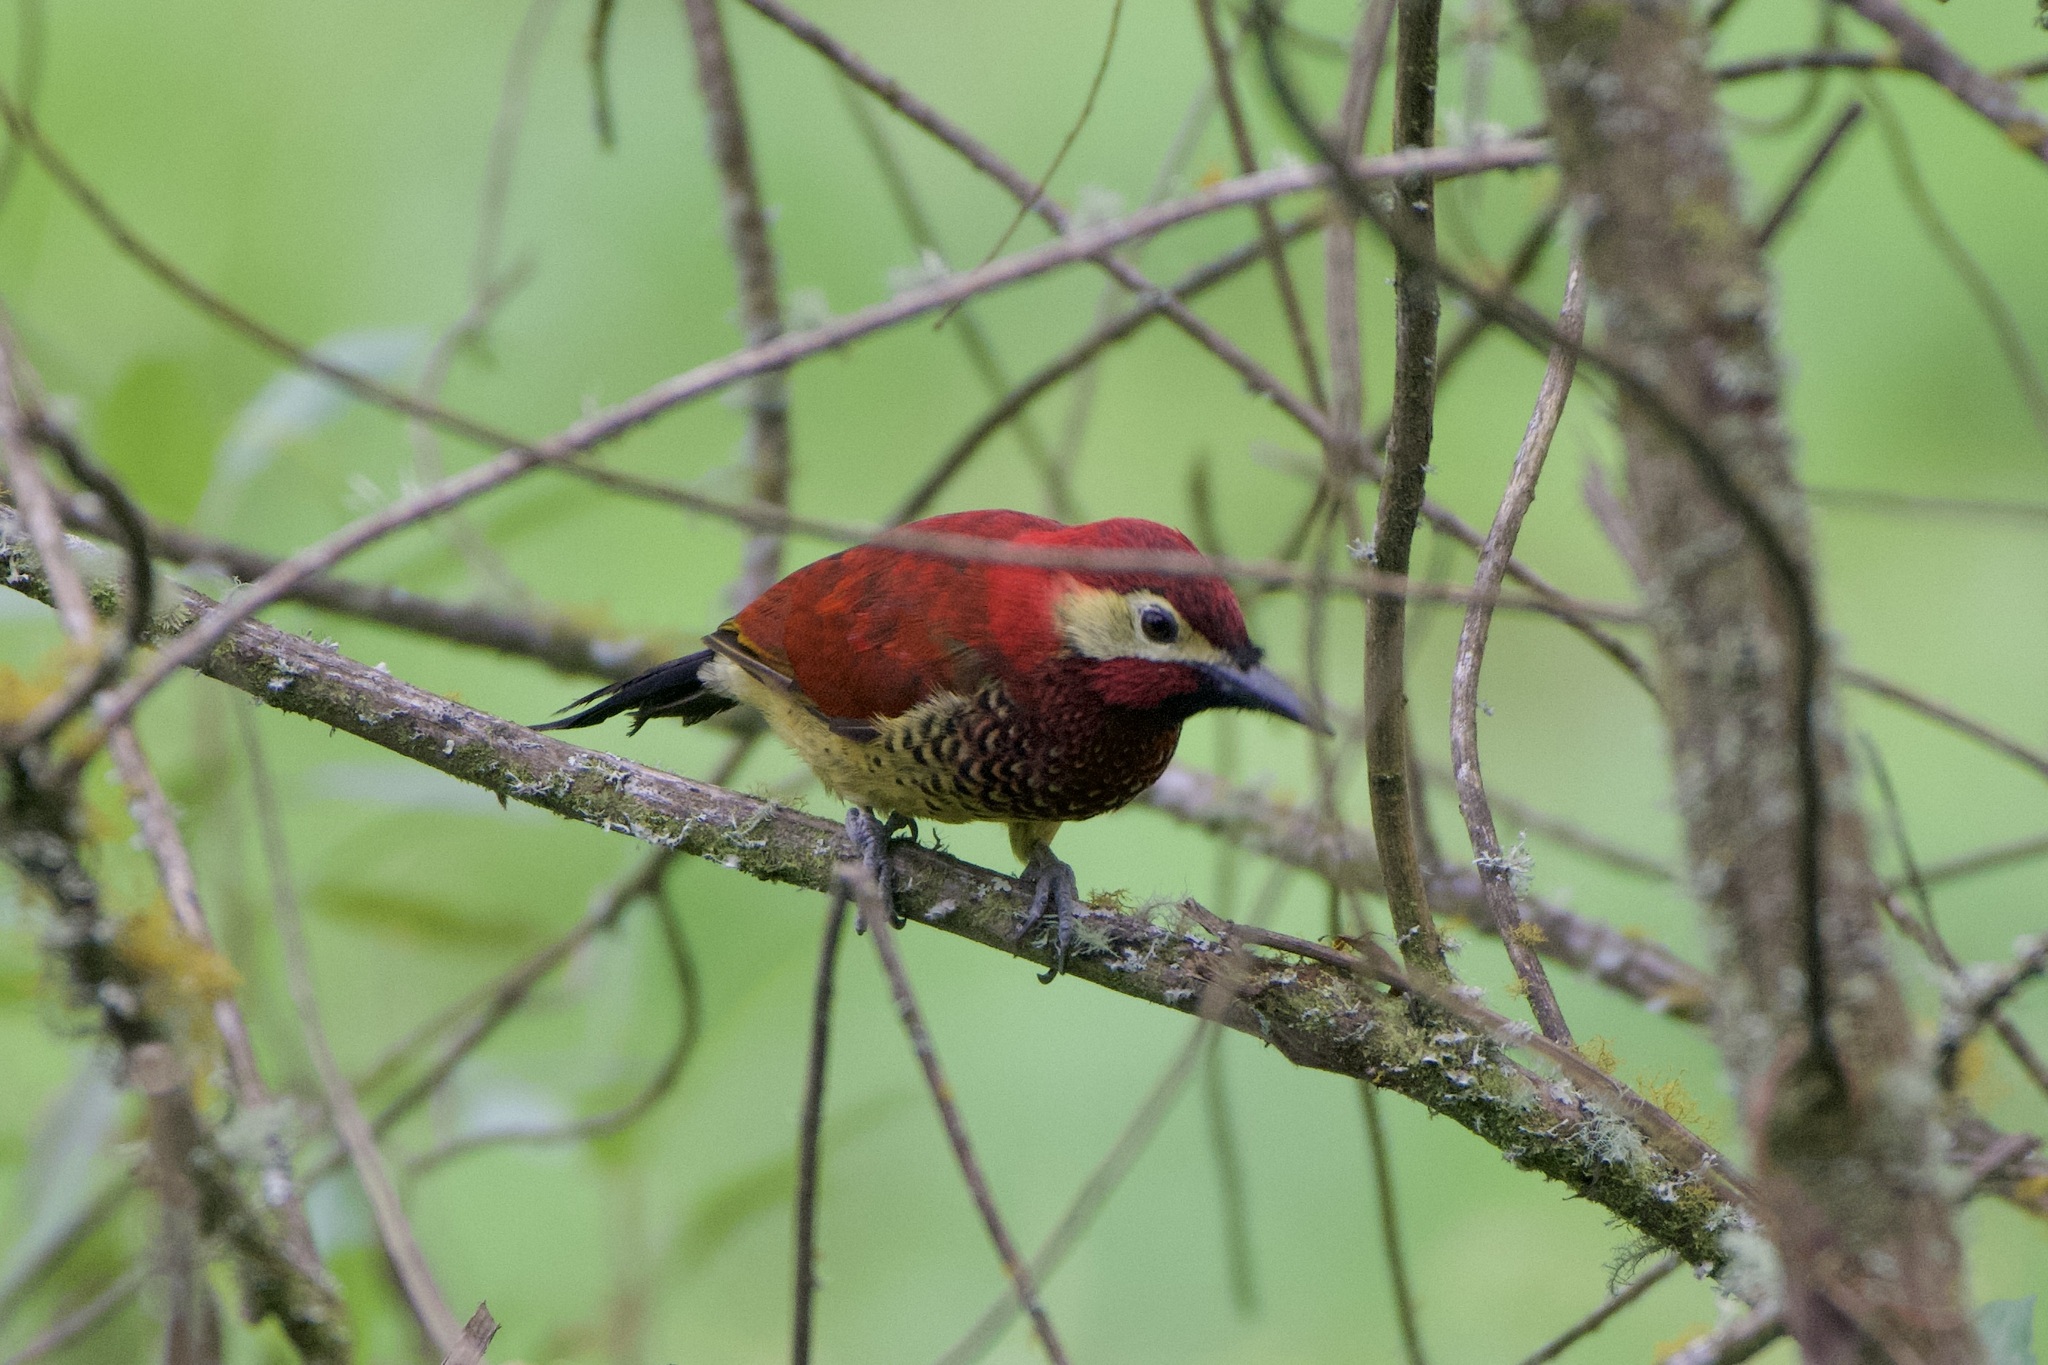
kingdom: Animalia
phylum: Chordata
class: Aves
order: Piciformes
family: Picidae
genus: Colaptes
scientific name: Colaptes rivolii
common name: Crimson-mantled woodpecker
